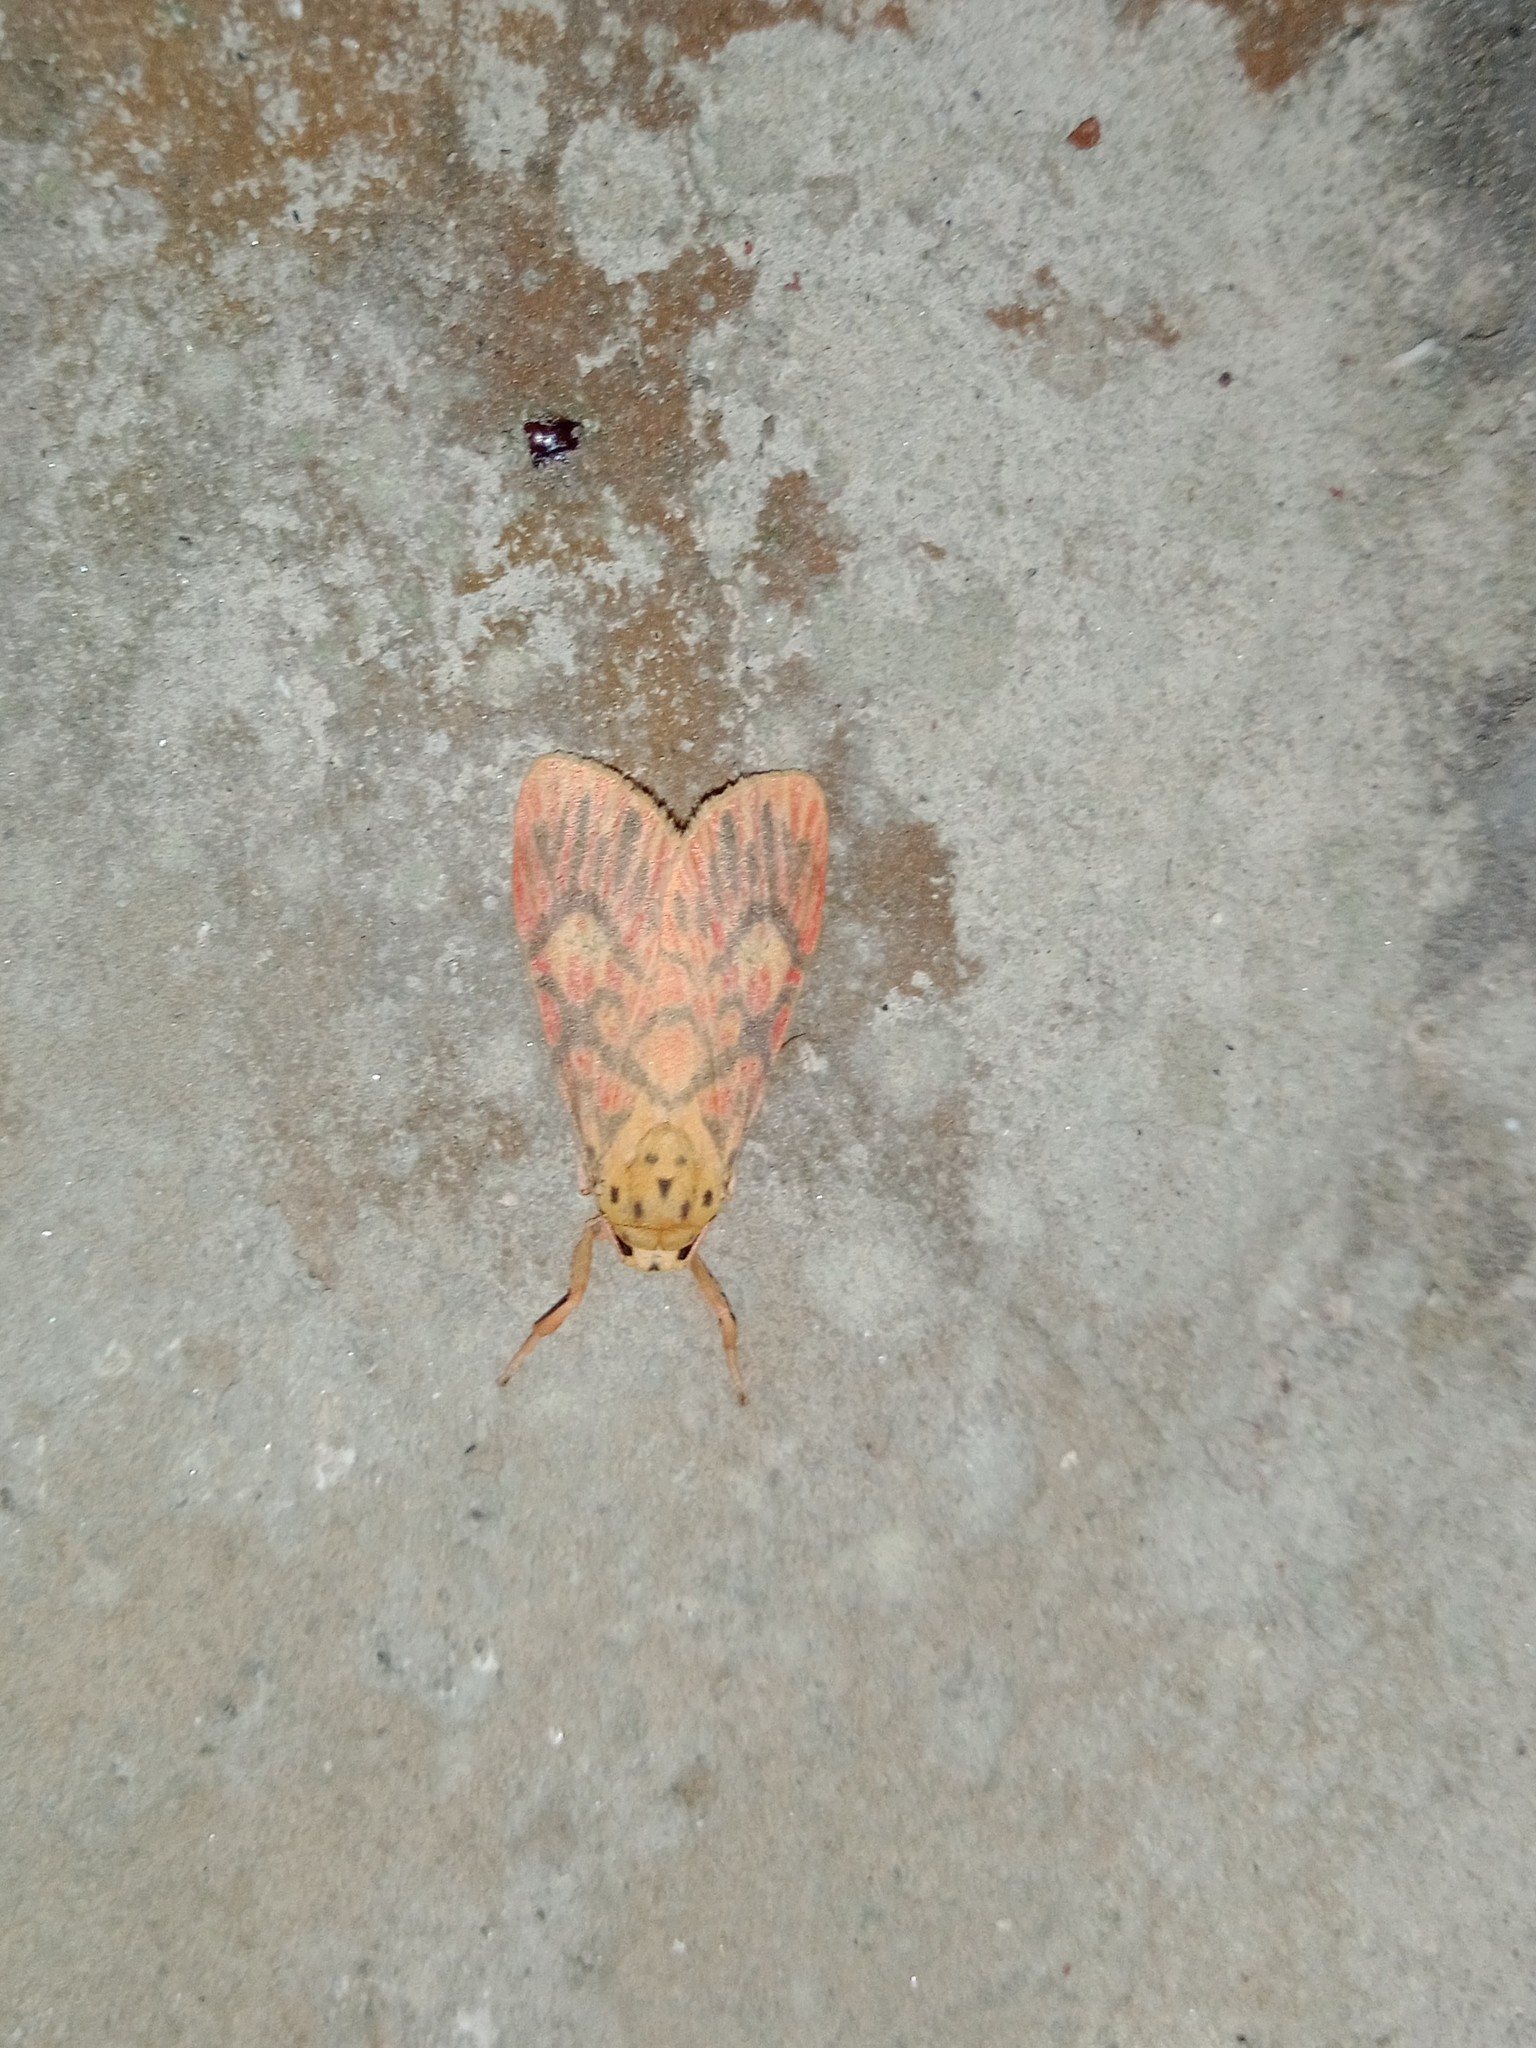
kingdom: Animalia
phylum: Arthropoda
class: Insecta
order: Lepidoptera
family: Erebidae
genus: Ammatho
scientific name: Ammatho cuneonotatus
